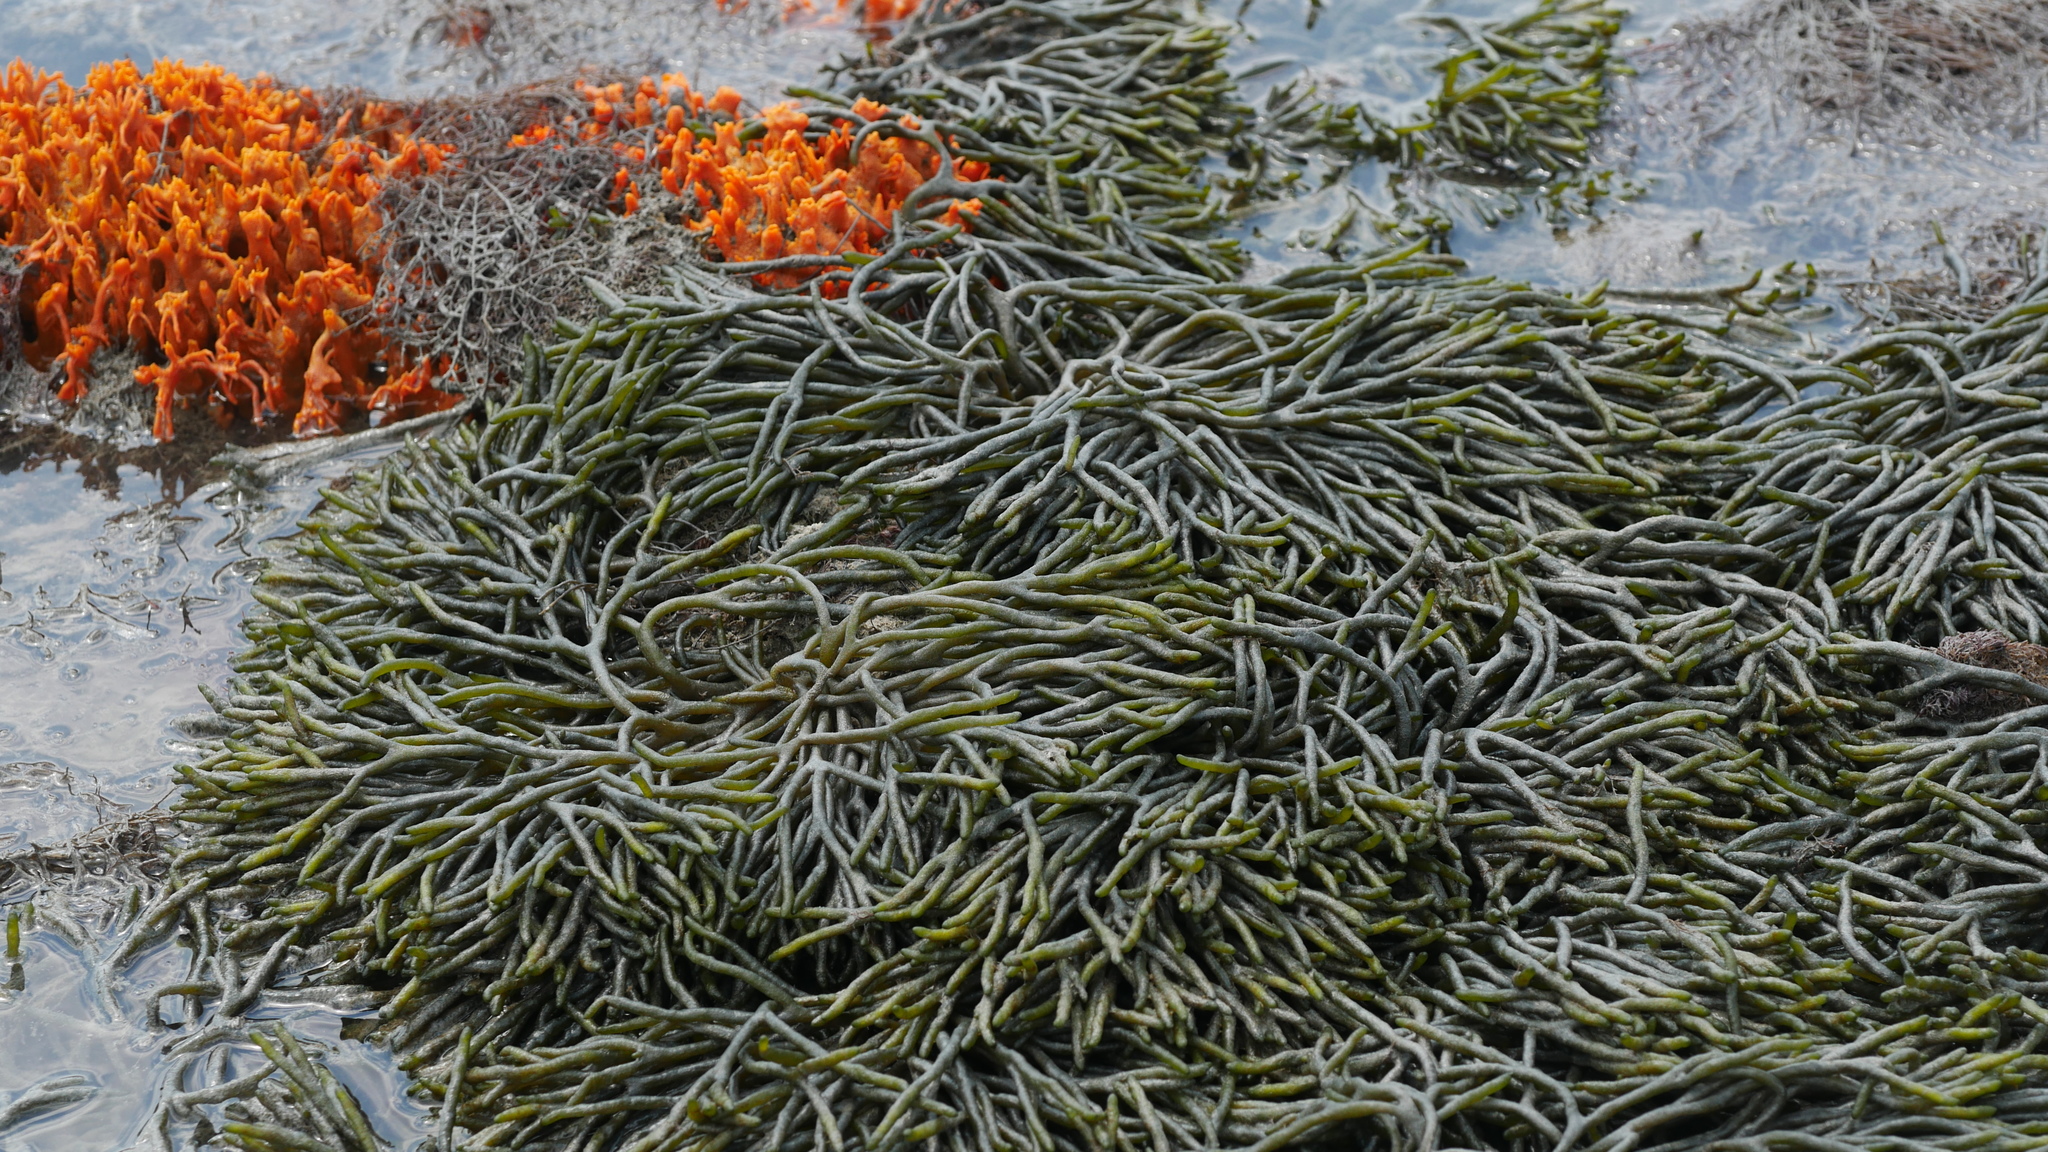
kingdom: Plantae
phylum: Chlorophyta
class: Ulvophyceae
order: Bryopsidales
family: Codiaceae
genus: Codium
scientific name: Codium fragile
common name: Dead man's fingers
